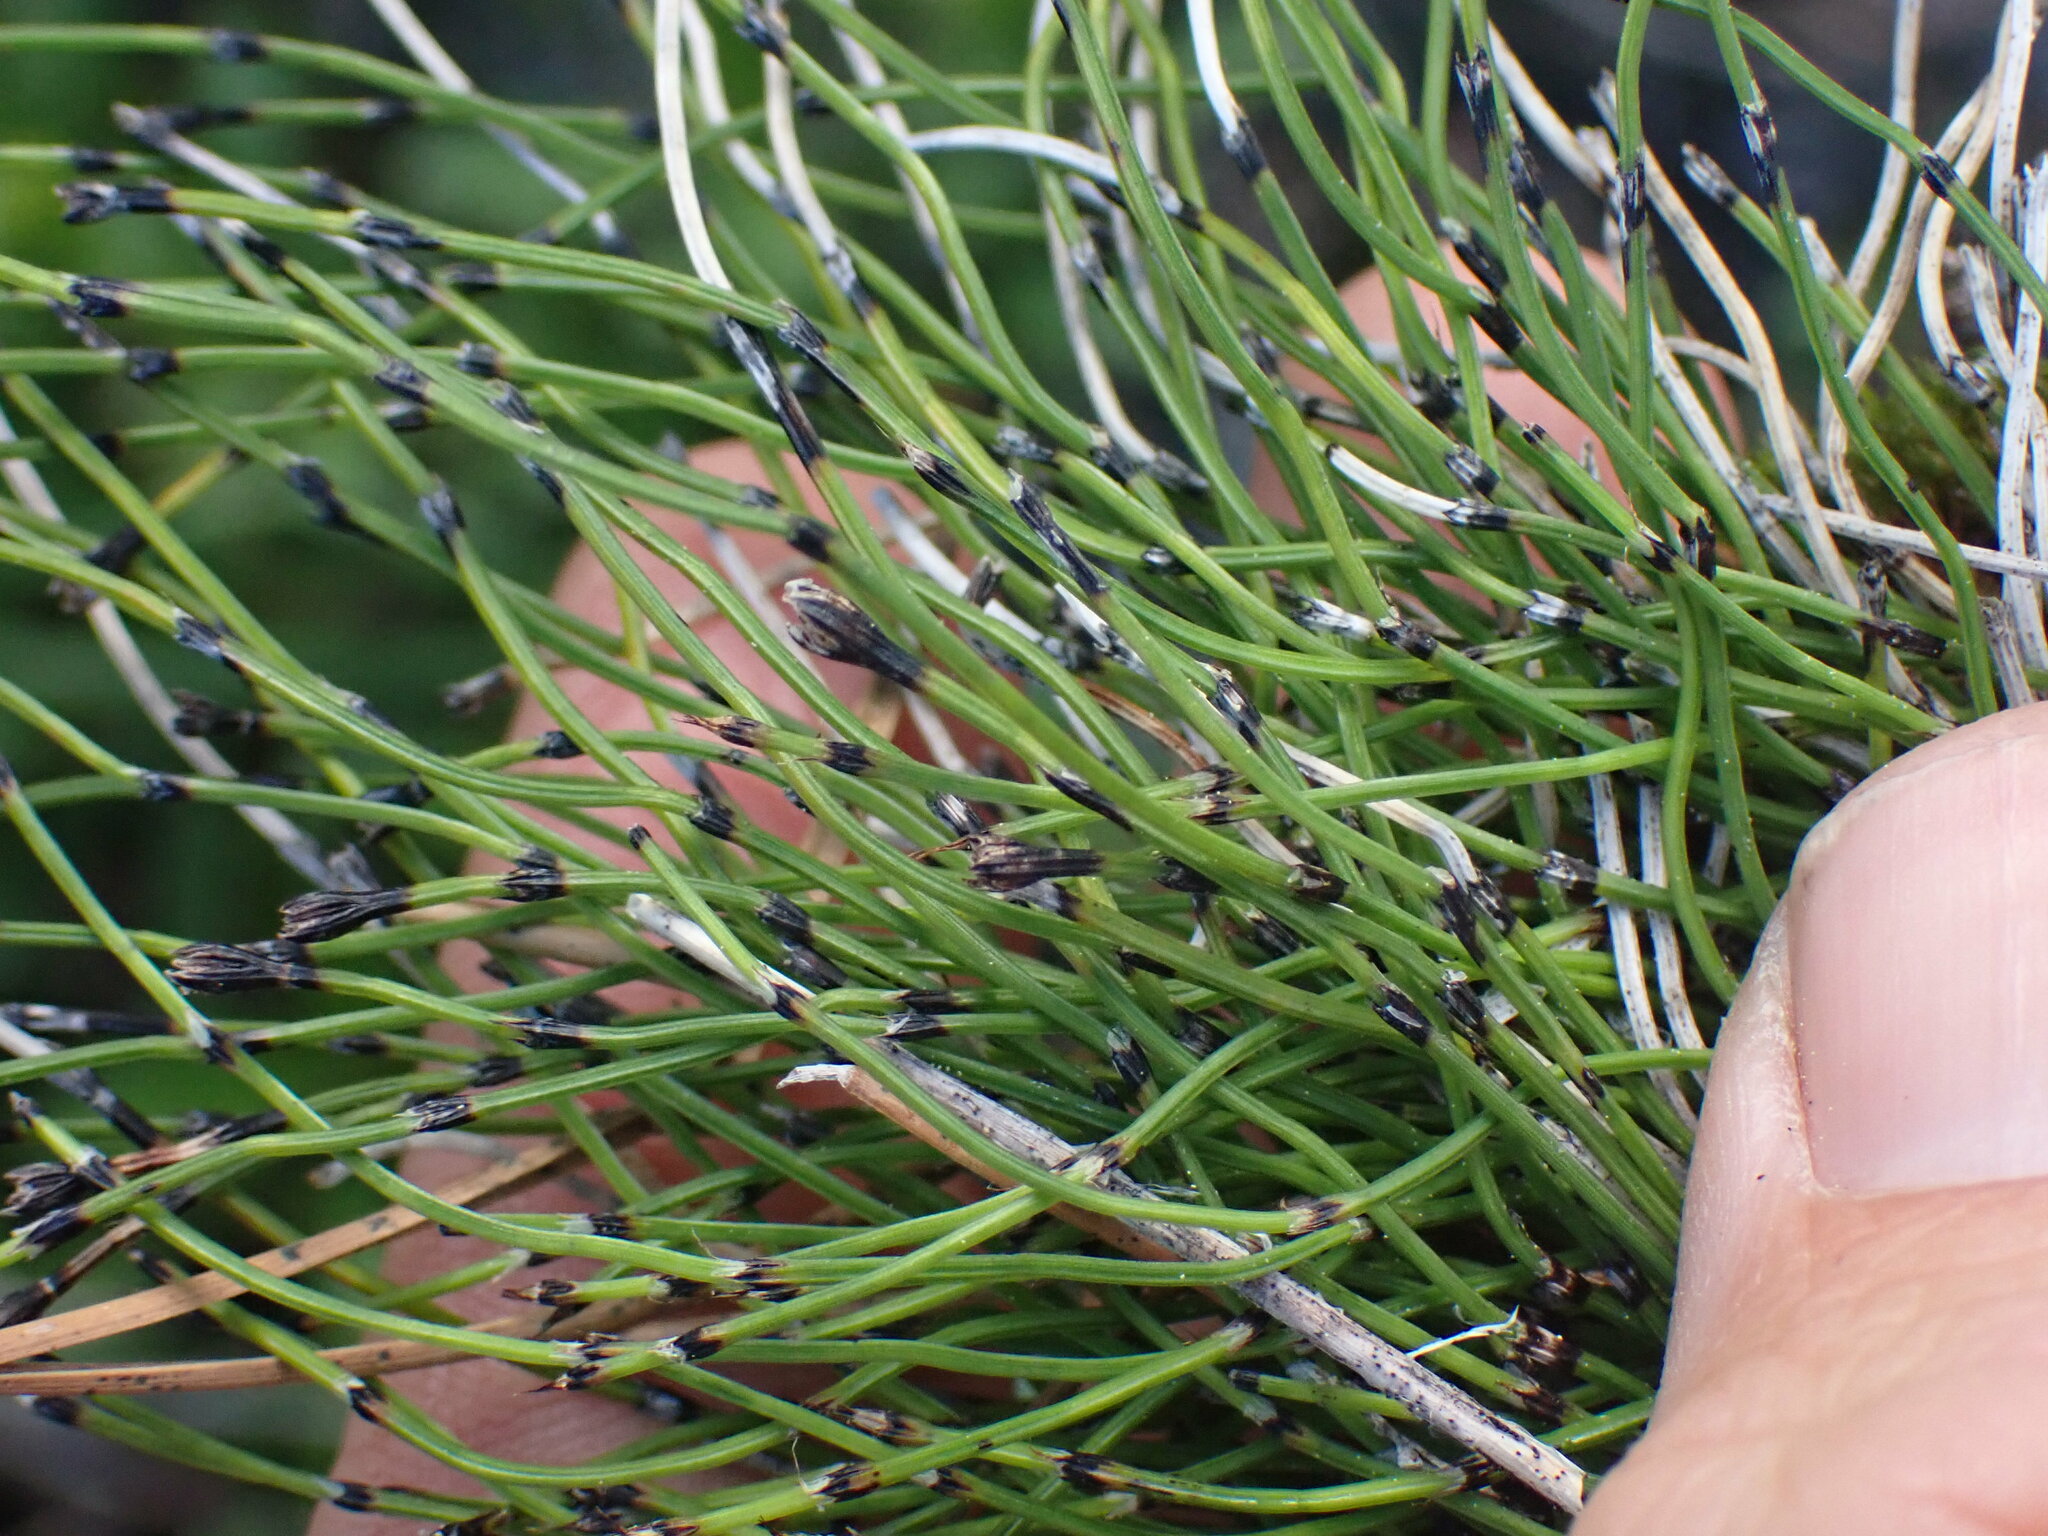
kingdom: Plantae
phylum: Tracheophyta
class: Polypodiopsida
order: Equisetales
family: Equisetaceae
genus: Equisetum
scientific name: Equisetum scirpoides
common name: Delicate horsetail
